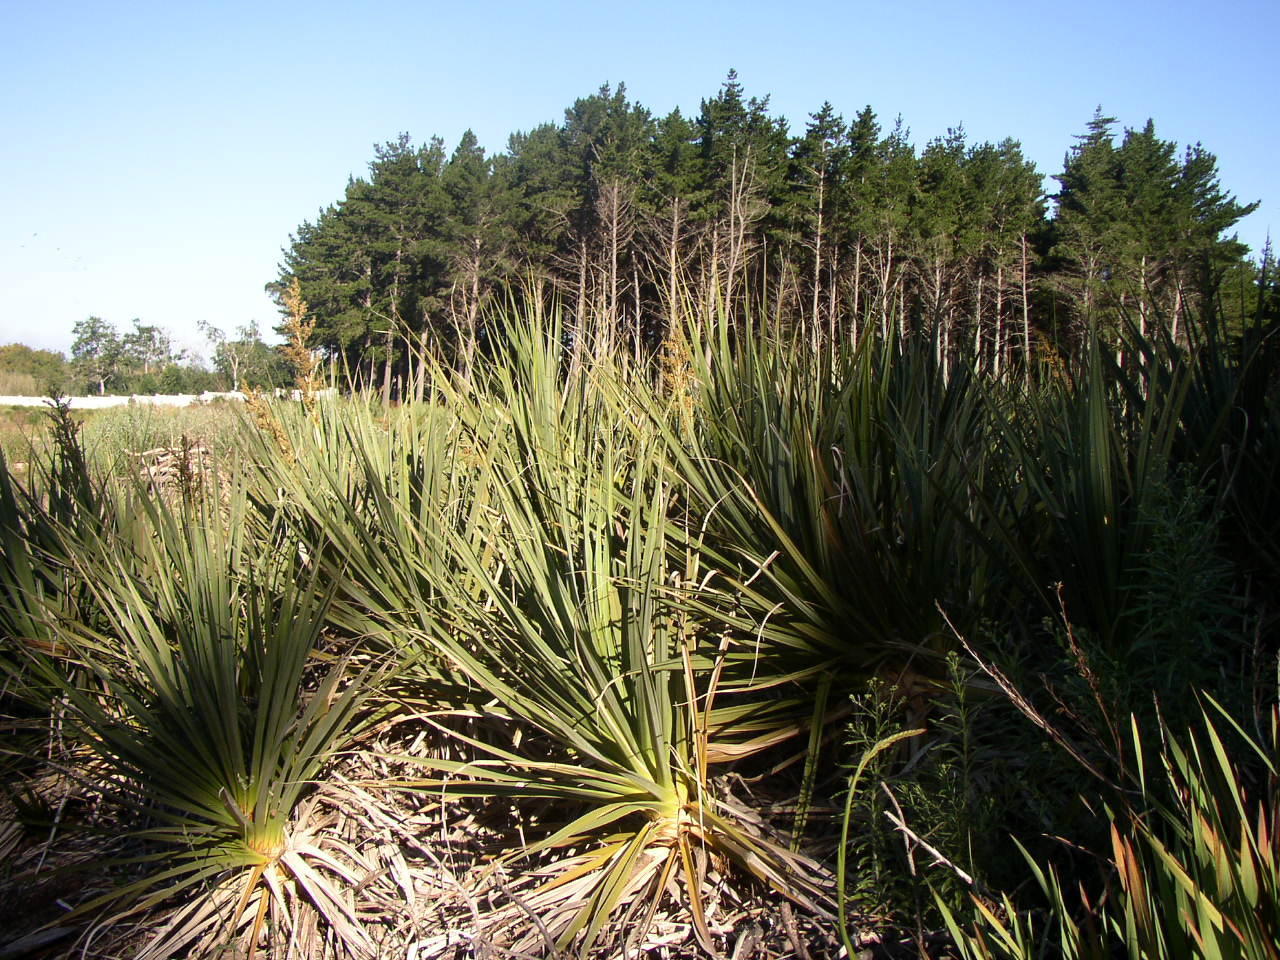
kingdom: Plantae
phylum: Tracheophyta
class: Liliopsida
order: Poales
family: Thurniaceae
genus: Prionium
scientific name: Prionium serratum
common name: Palmiet
